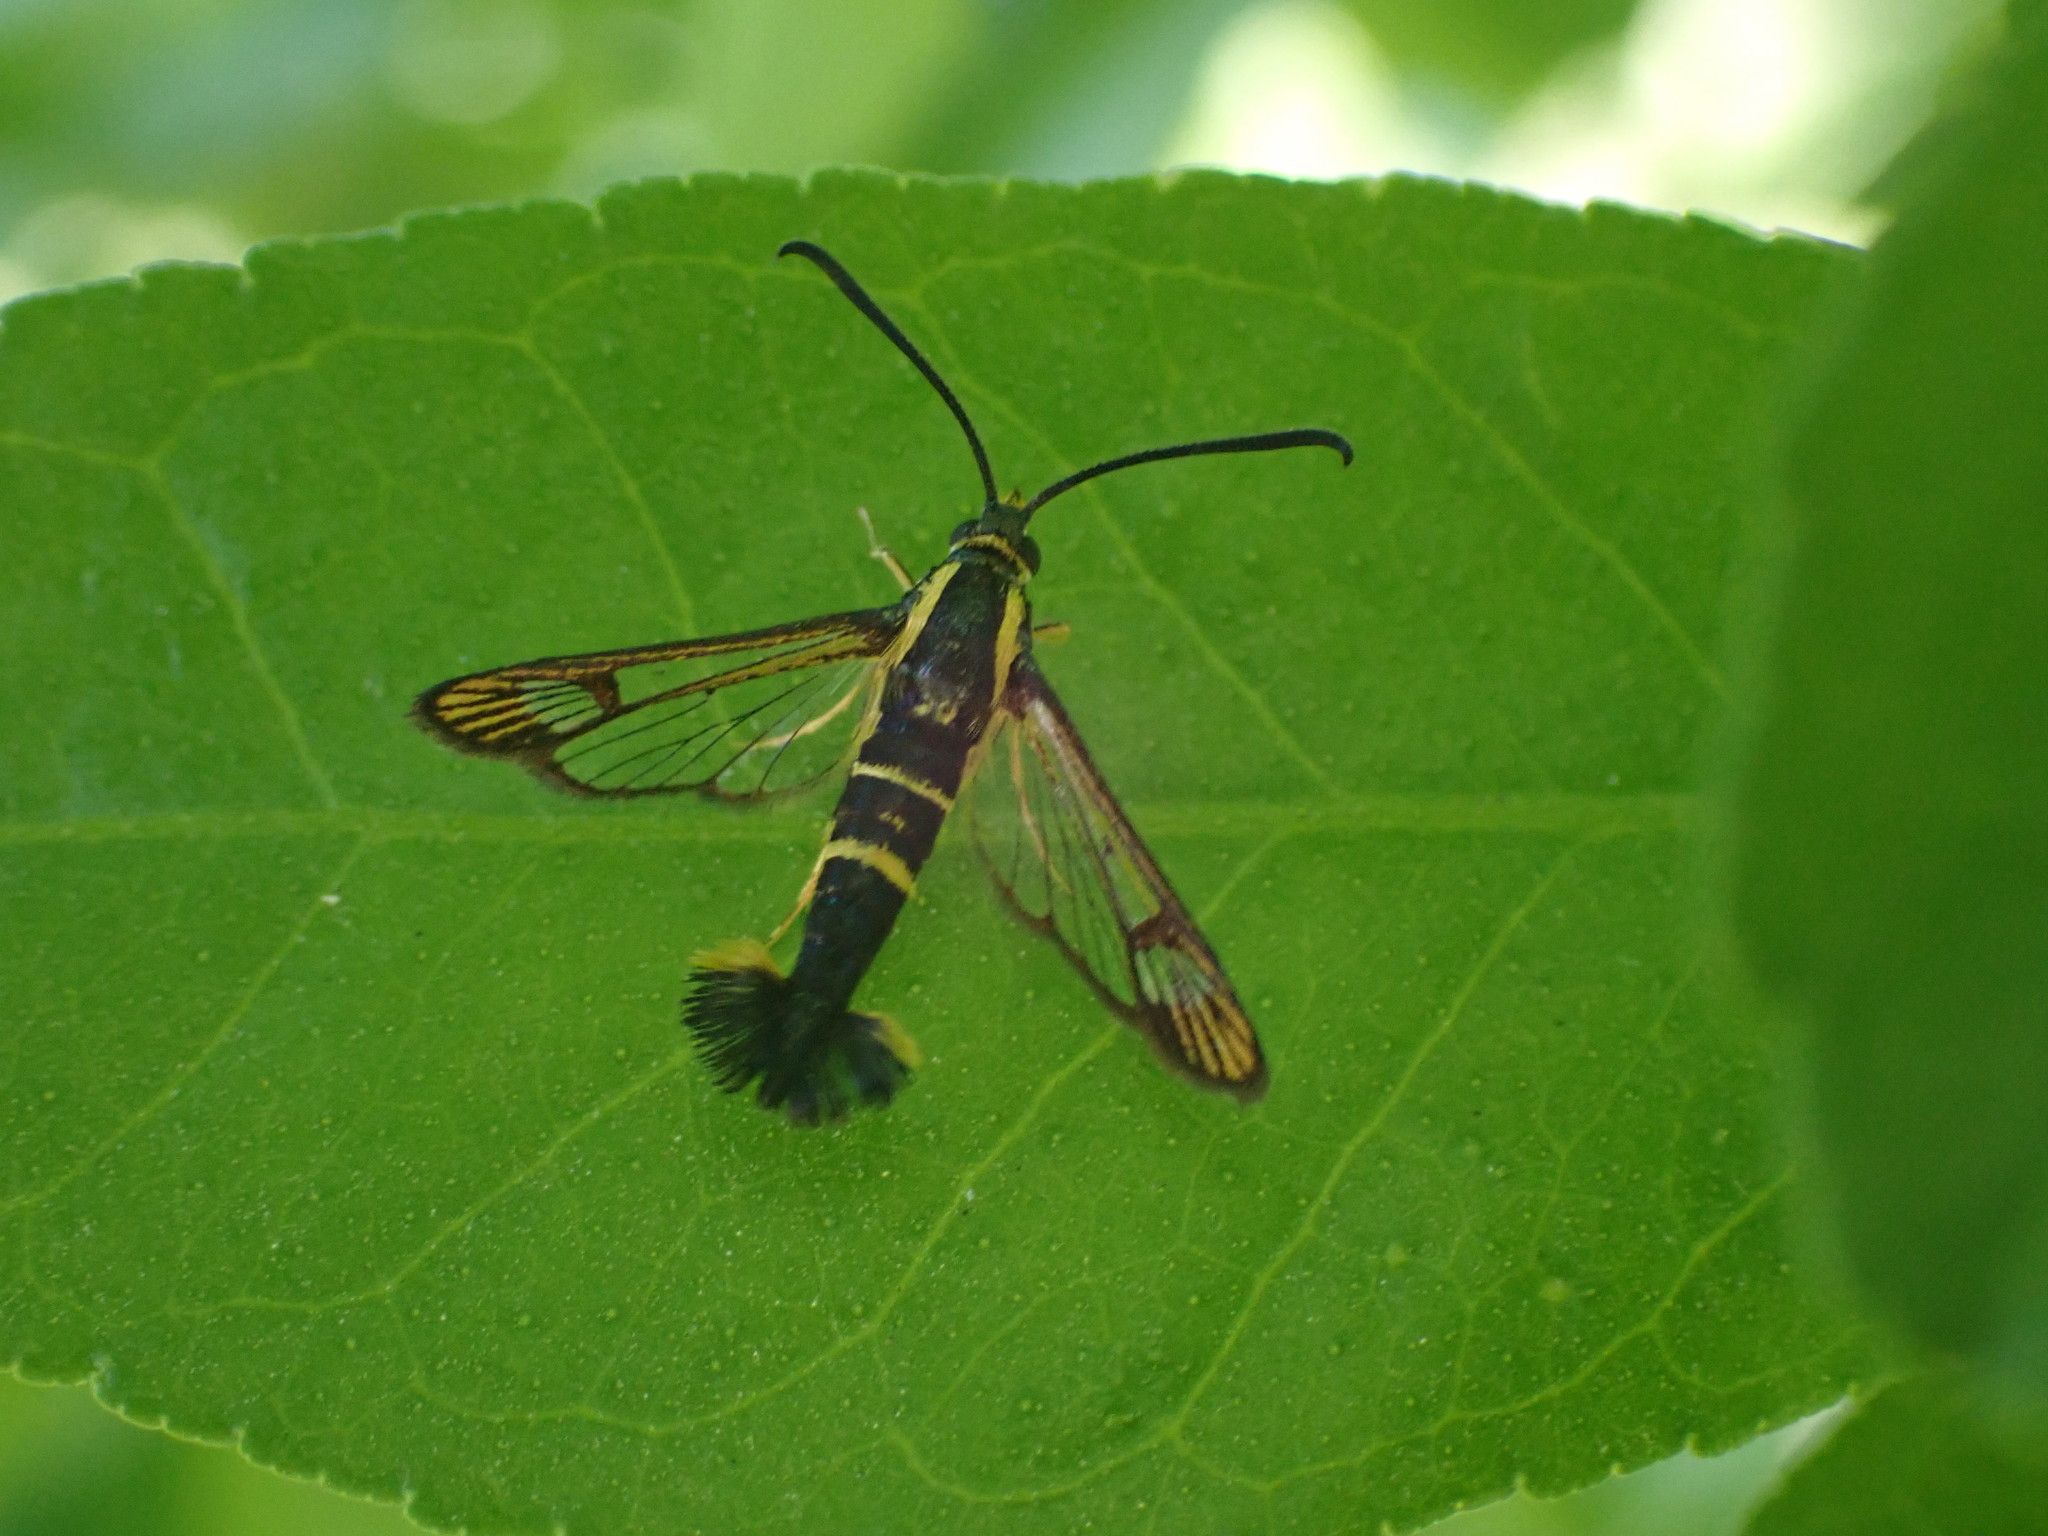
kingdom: Animalia
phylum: Arthropoda
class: Insecta
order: Lepidoptera
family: Sesiidae
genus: Synanthedon
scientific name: Synanthedon scitula
